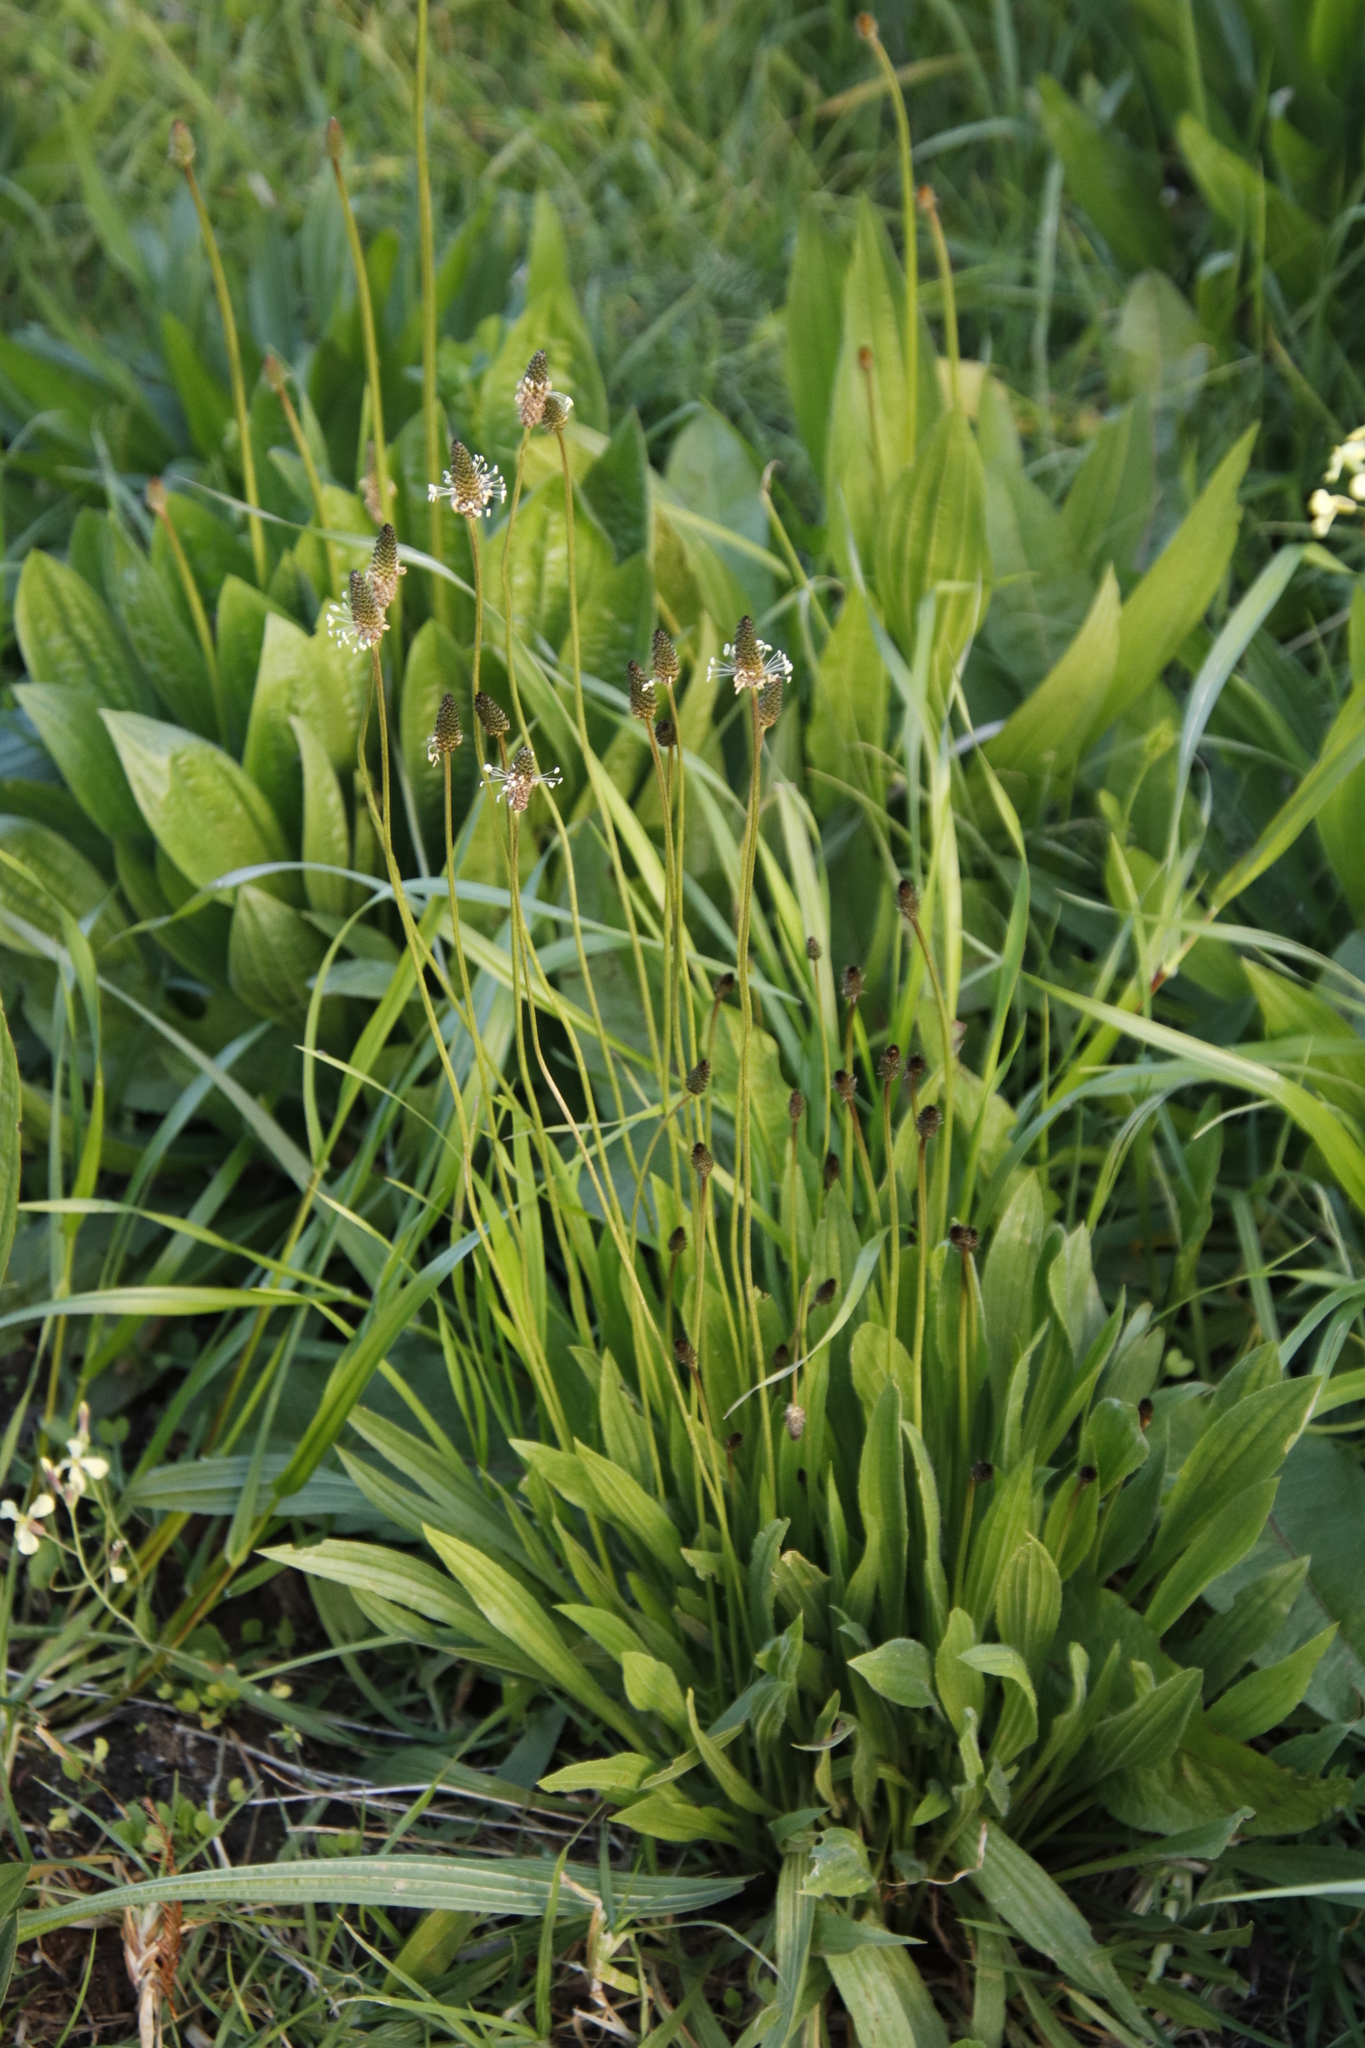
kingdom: Plantae
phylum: Tracheophyta
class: Magnoliopsida
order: Lamiales
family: Plantaginaceae
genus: Plantago
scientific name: Plantago lanceolata
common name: Ribwort plantain
